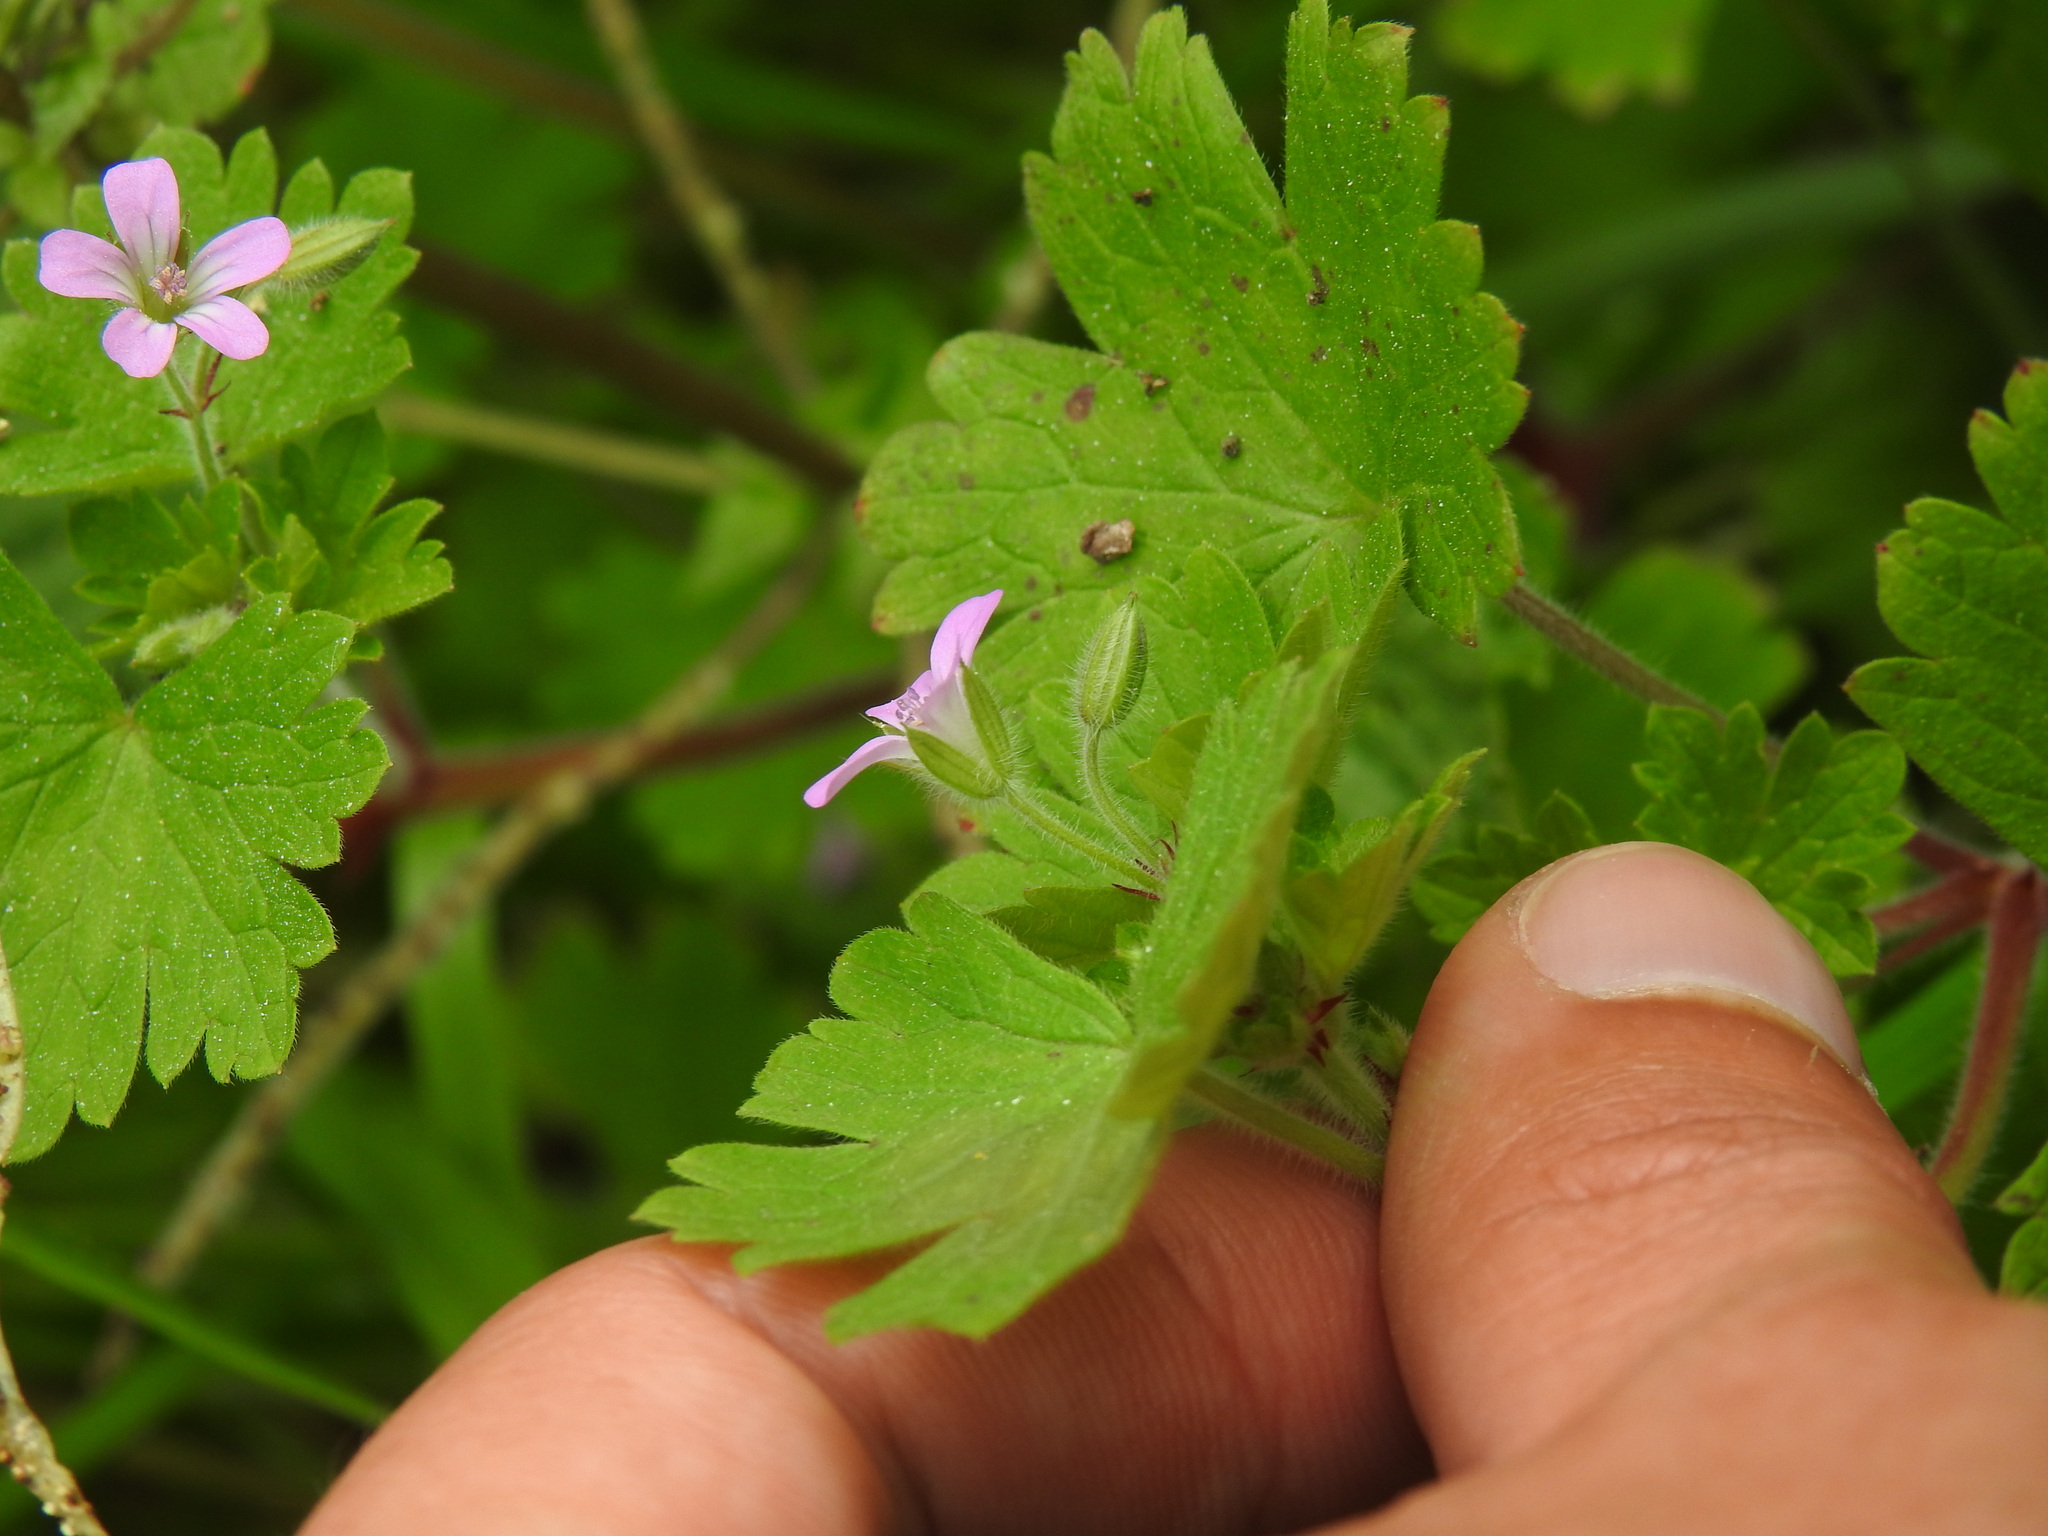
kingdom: Plantae
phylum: Tracheophyta
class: Magnoliopsida
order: Geraniales
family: Geraniaceae
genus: Geranium
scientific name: Geranium rotundifolium
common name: Round-leaved crane's-bill
